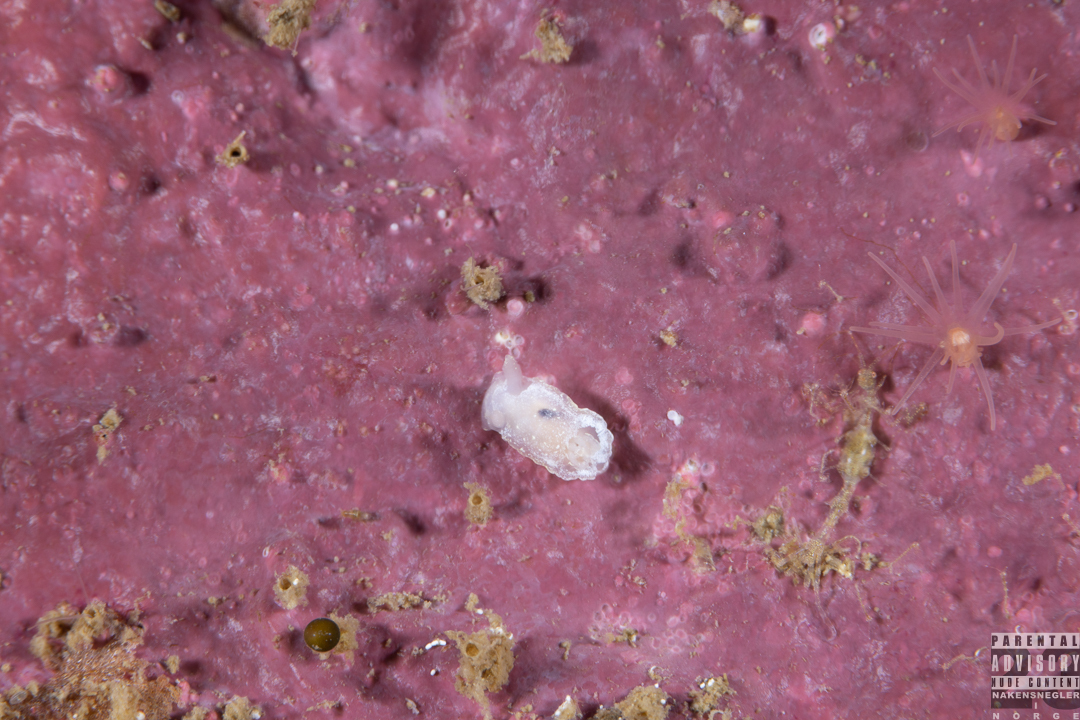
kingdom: Animalia
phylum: Mollusca
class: Gastropoda
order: Nudibranchia
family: Goniodorididae
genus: Okenia
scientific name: Okenia
